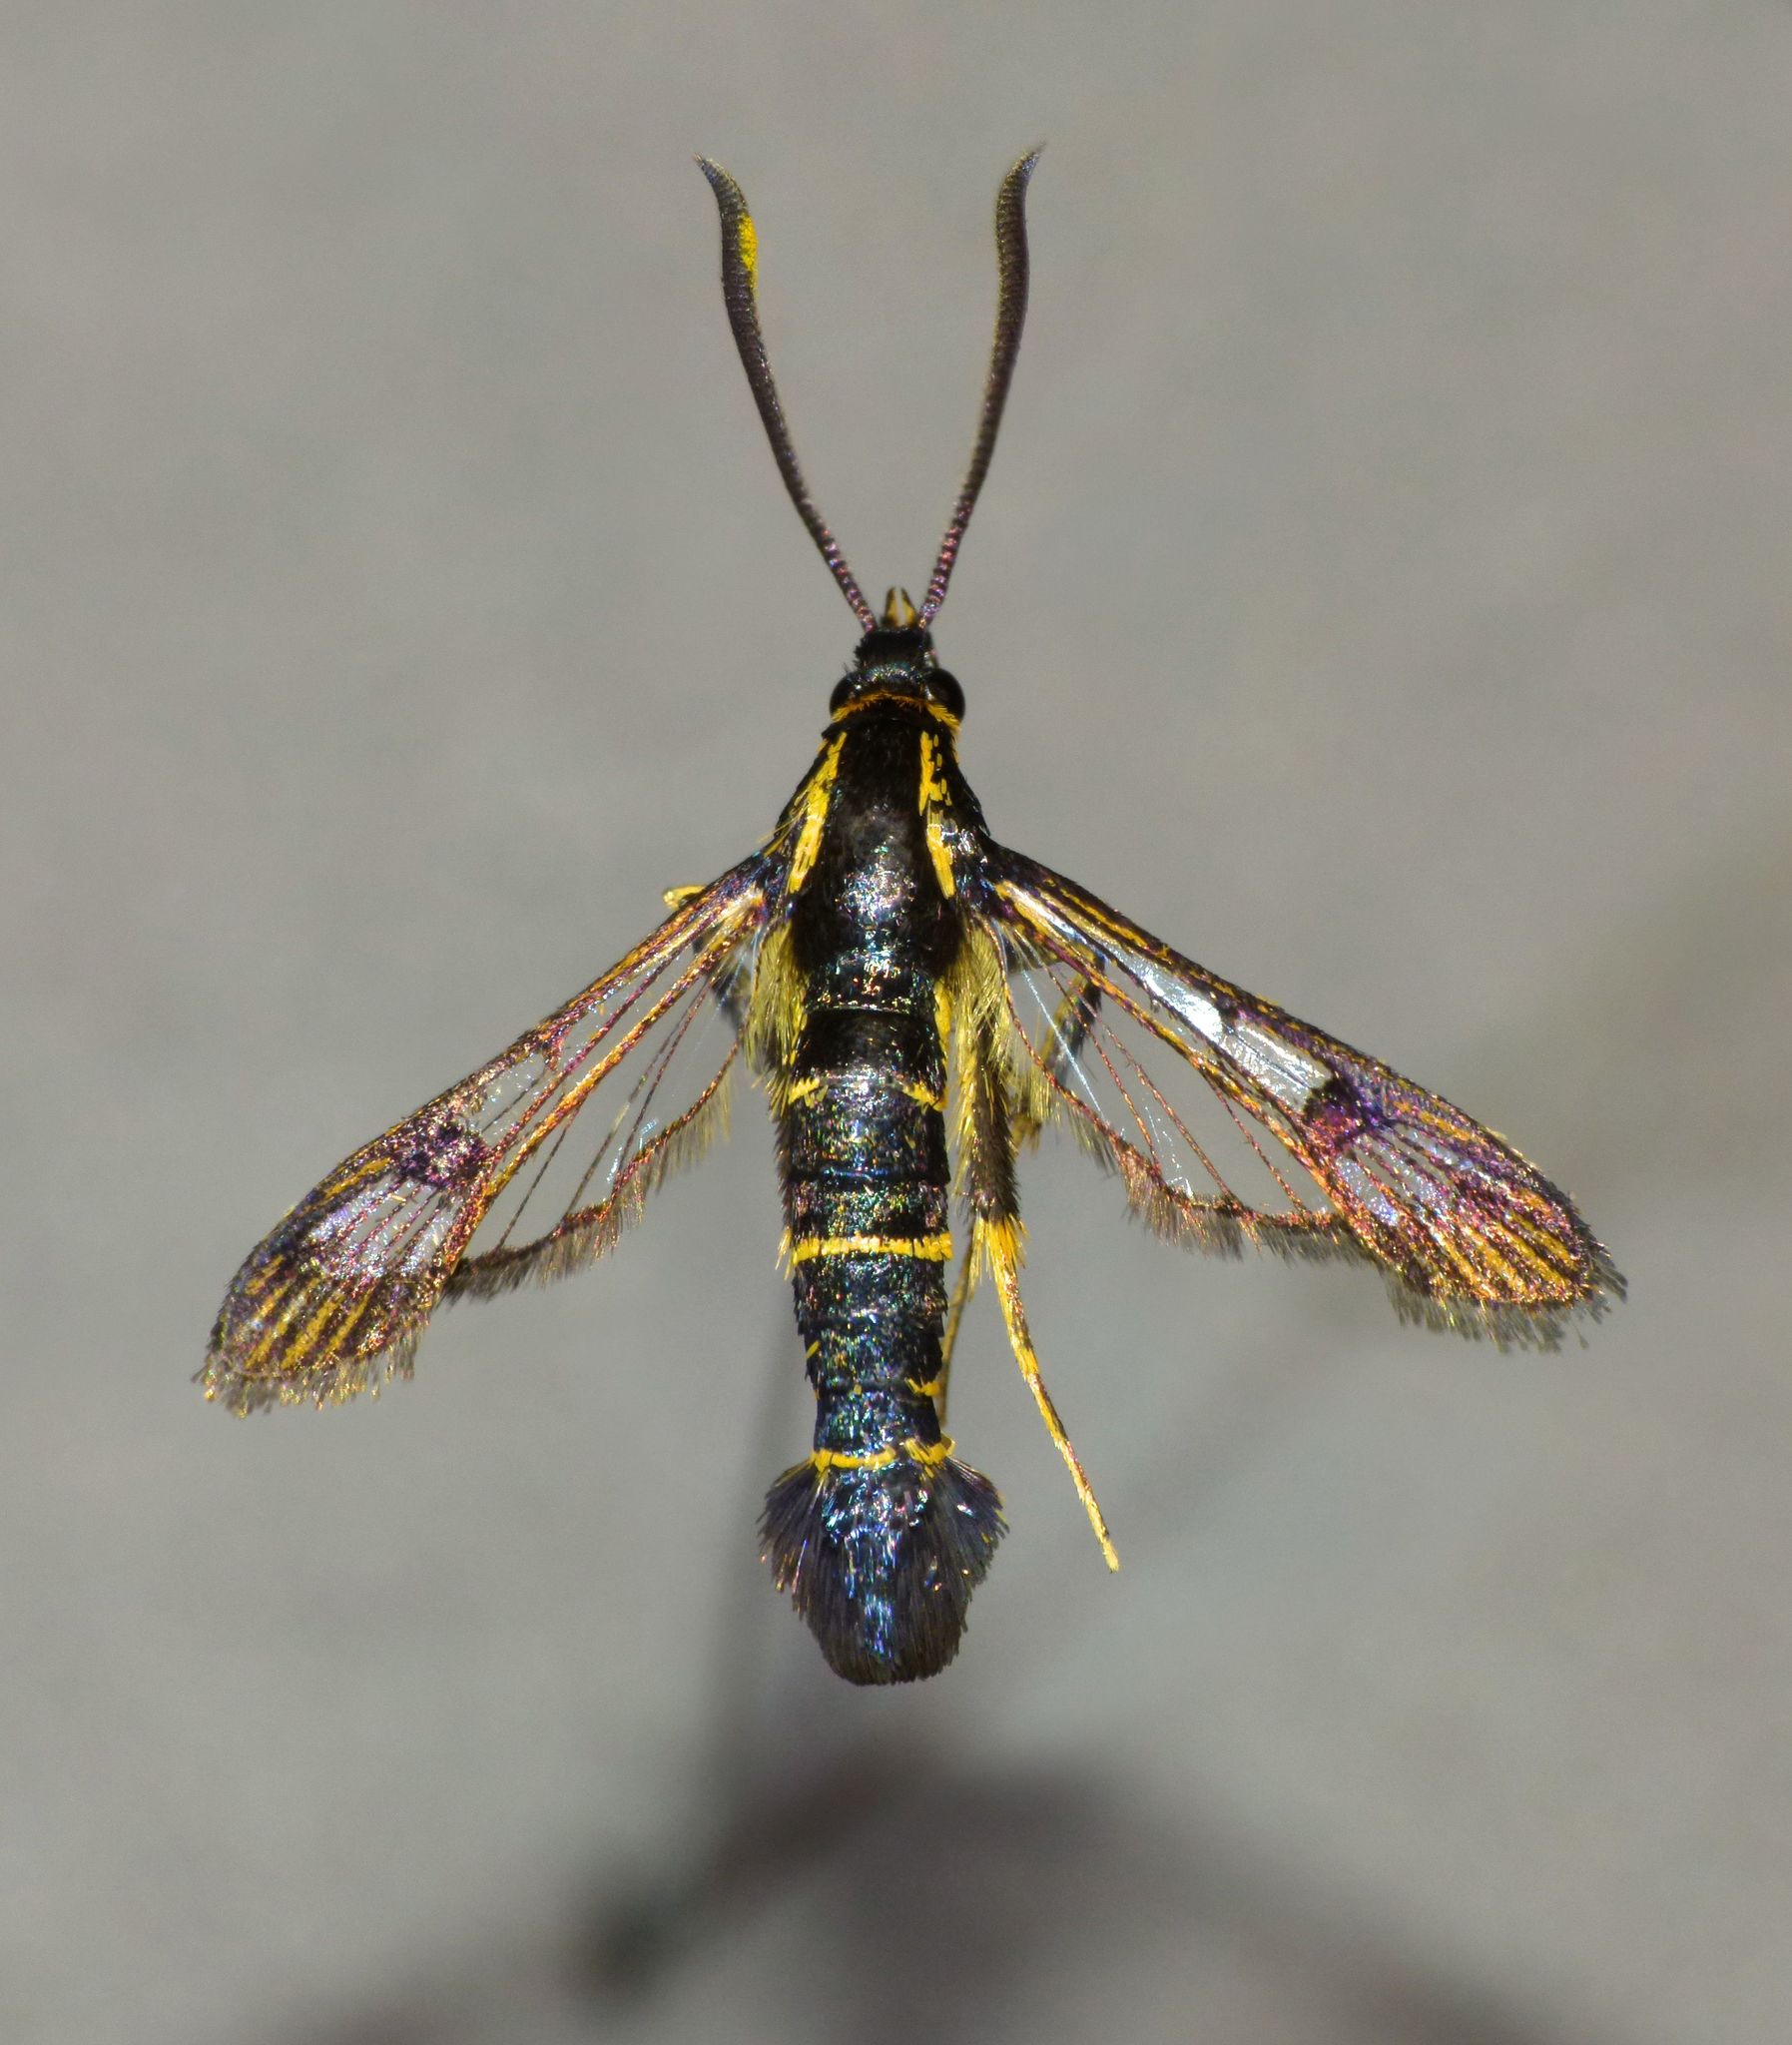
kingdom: Animalia
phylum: Arthropoda
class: Insecta
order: Lepidoptera
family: Sesiidae
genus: Synanthedon
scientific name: Synanthedon tipuliformis
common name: Currant clearwing
